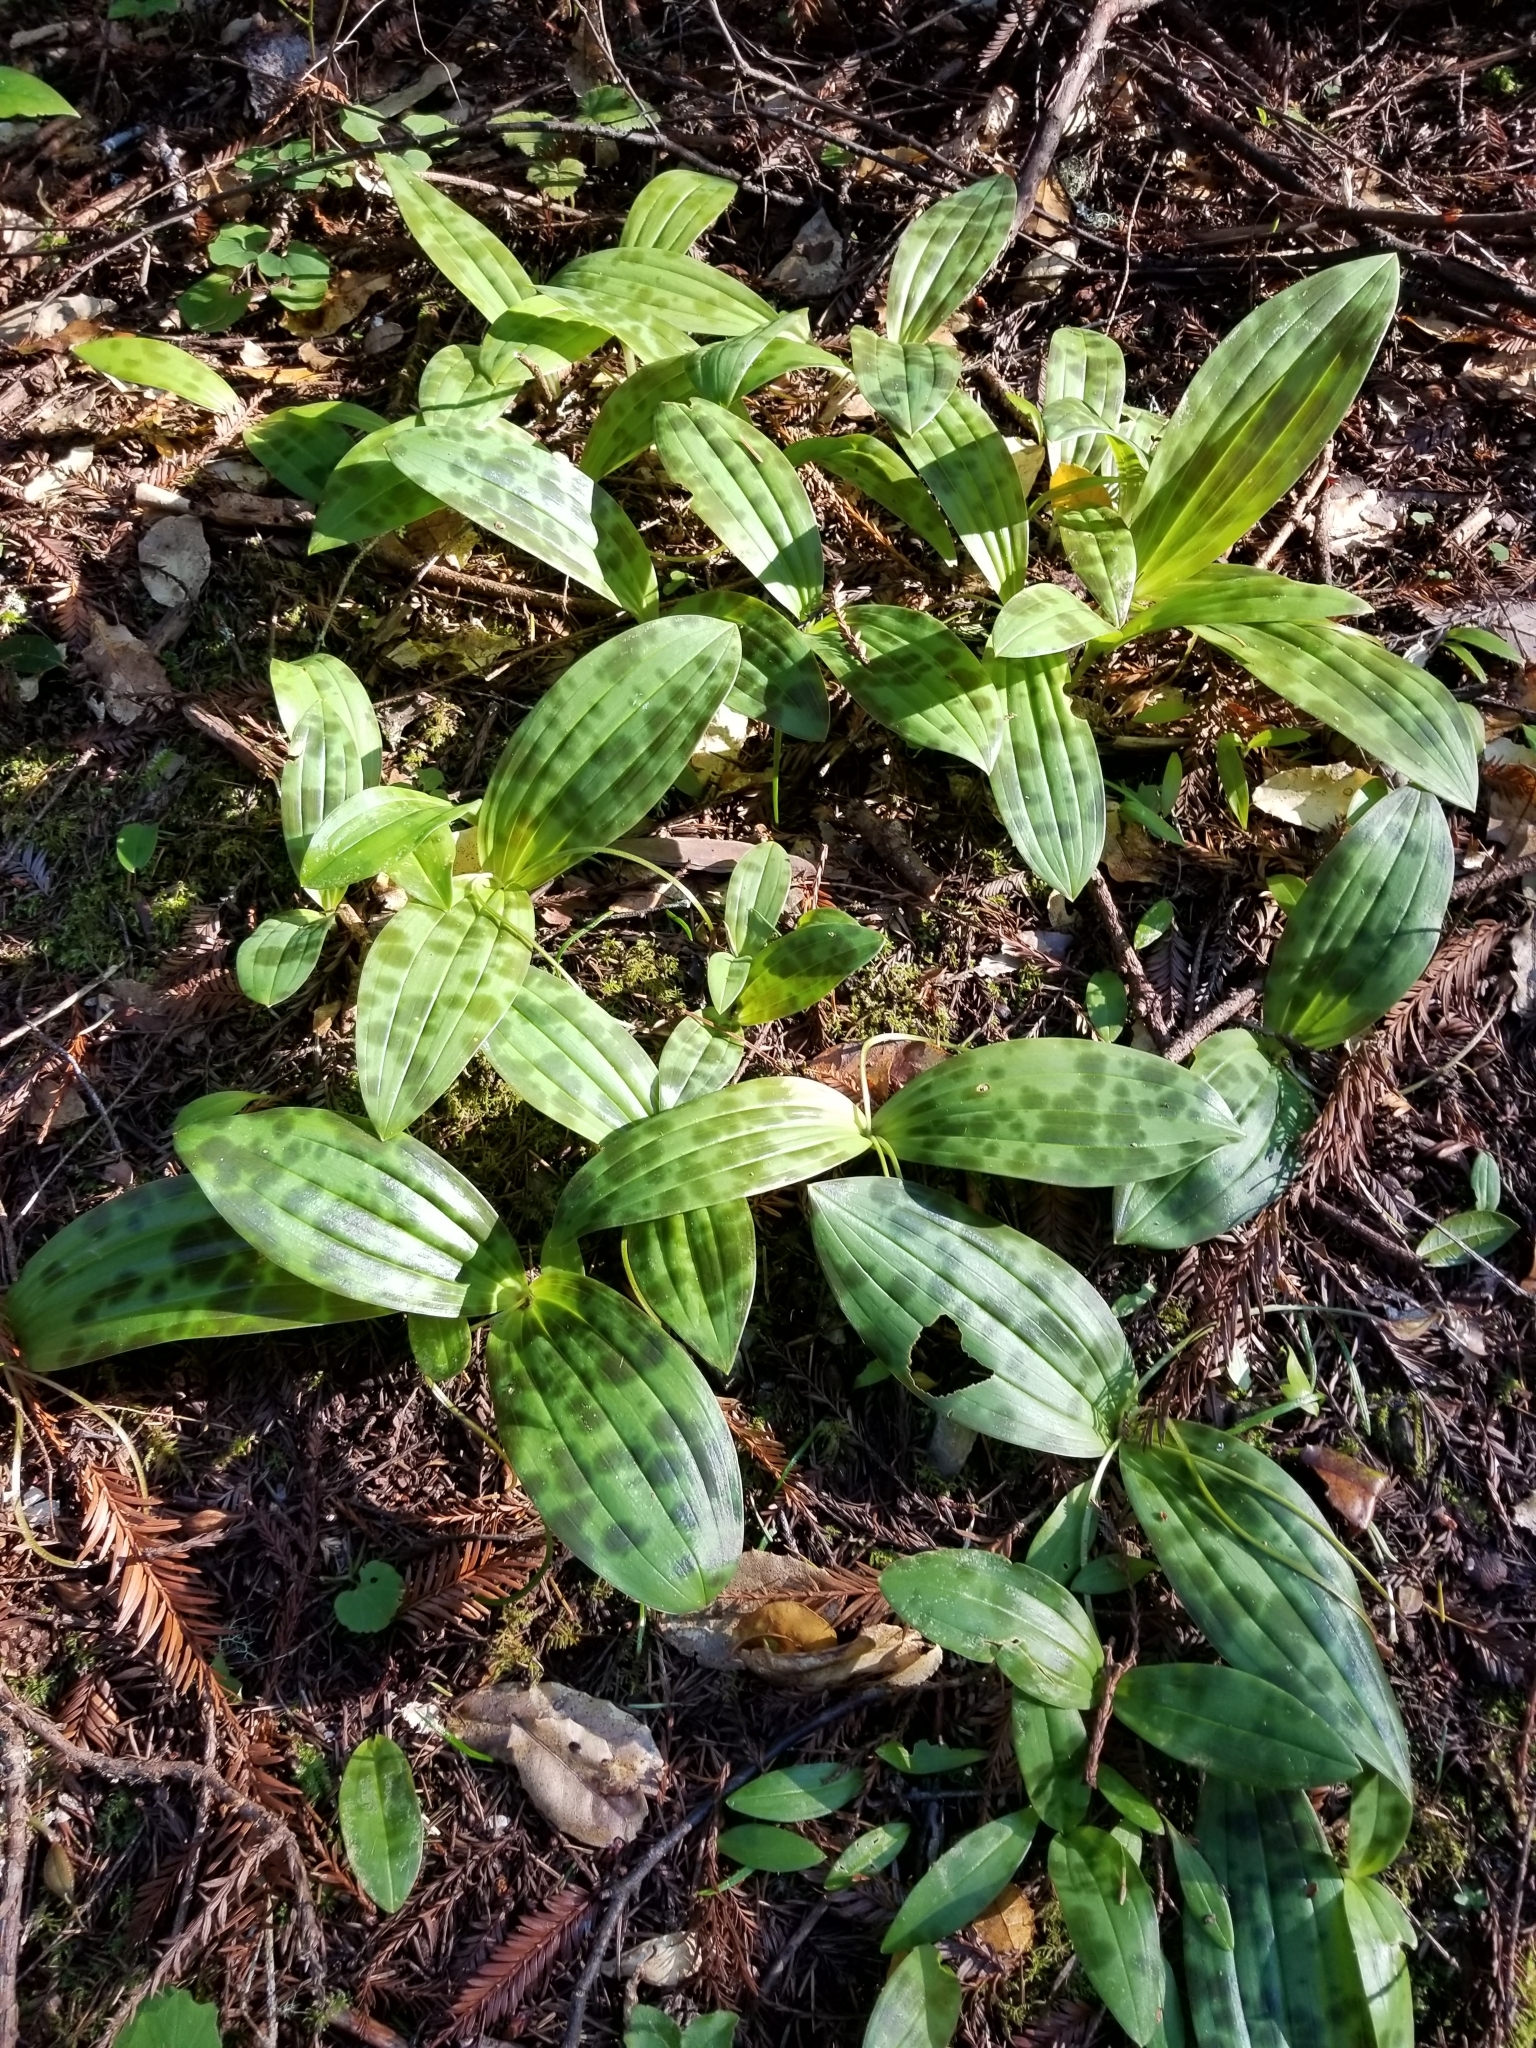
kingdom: Plantae
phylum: Tracheophyta
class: Liliopsida
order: Liliales
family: Liliaceae
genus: Scoliopus
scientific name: Scoliopus bigelovii
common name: Foetid adder's-tongue
